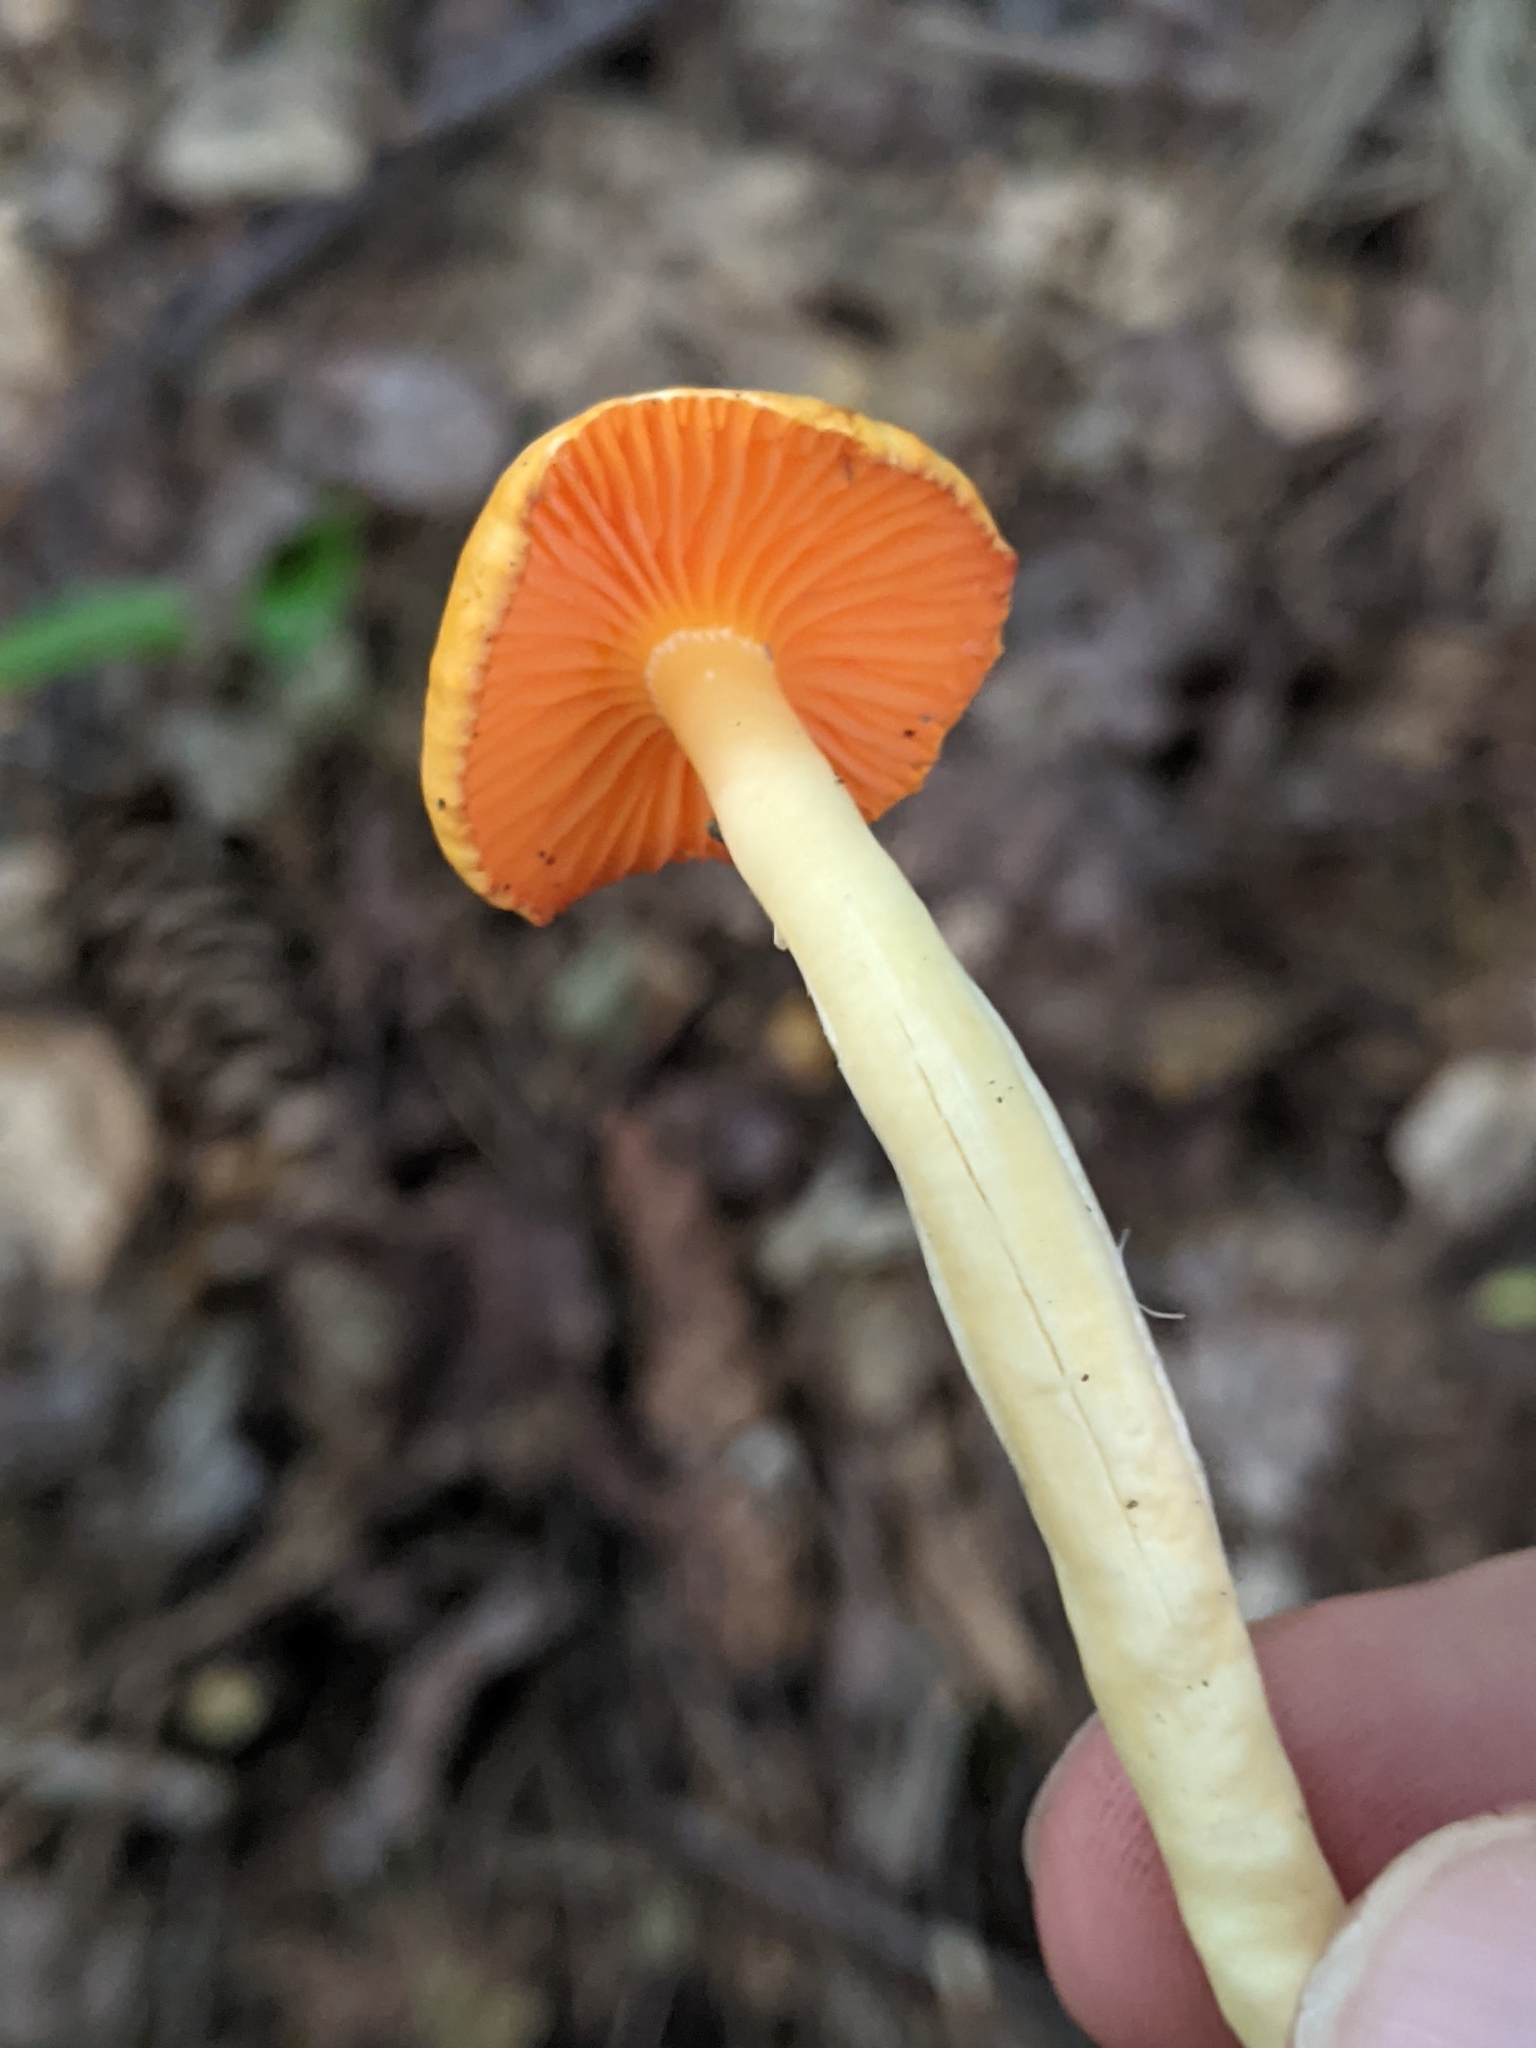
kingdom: Fungi
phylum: Basidiomycota
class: Agaricomycetes
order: Agaricales
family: Hygrophoraceae
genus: Humidicutis
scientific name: Humidicutis marginata
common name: Orange gilled waxcap
